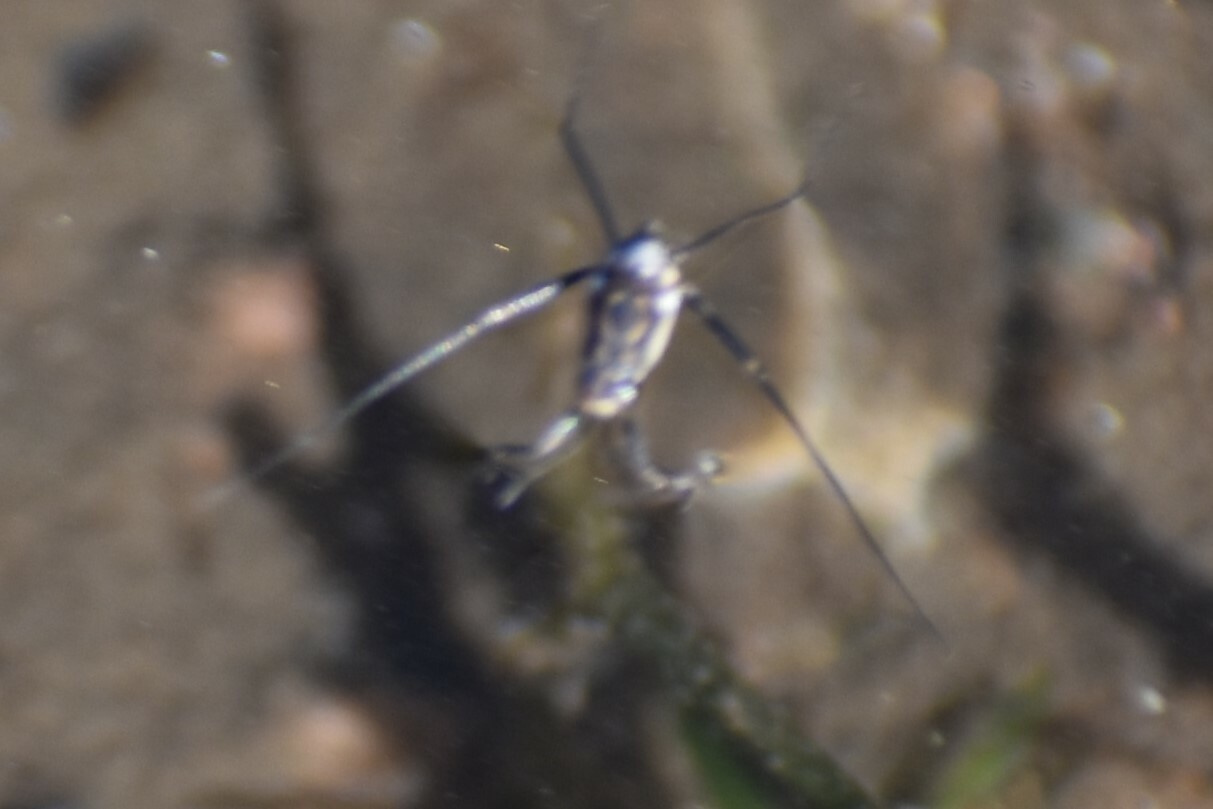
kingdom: Animalia
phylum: Arthropoda
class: Insecta
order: Hemiptera
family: Gerridae
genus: Trepobates
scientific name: Trepobates
